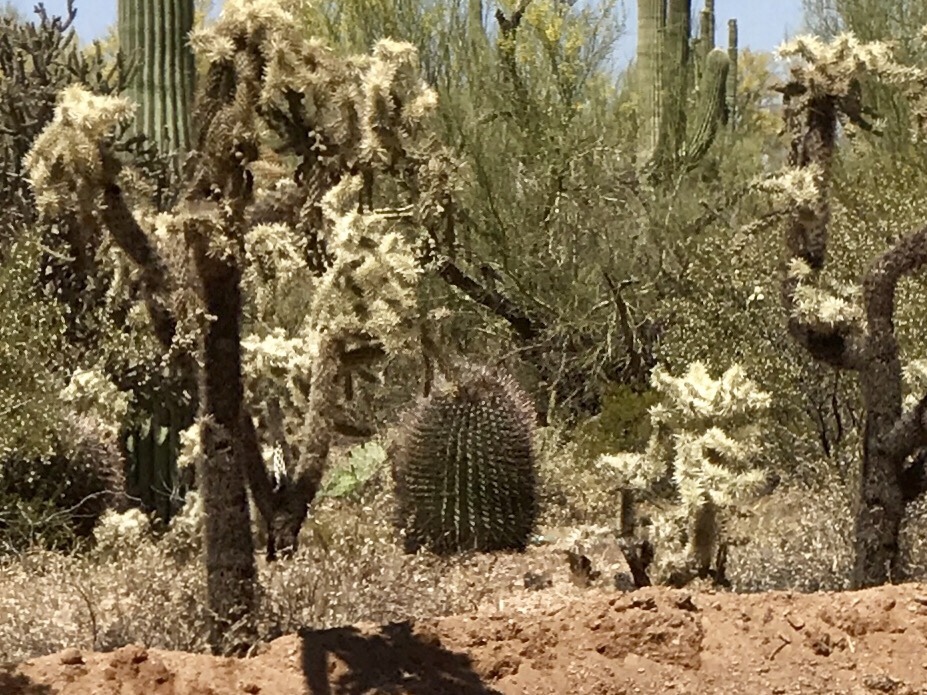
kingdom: Plantae
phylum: Tracheophyta
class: Magnoliopsida
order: Caryophyllales
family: Cactaceae
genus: Ferocactus
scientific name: Ferocactus wislizeni
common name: Candy barrel cactus
